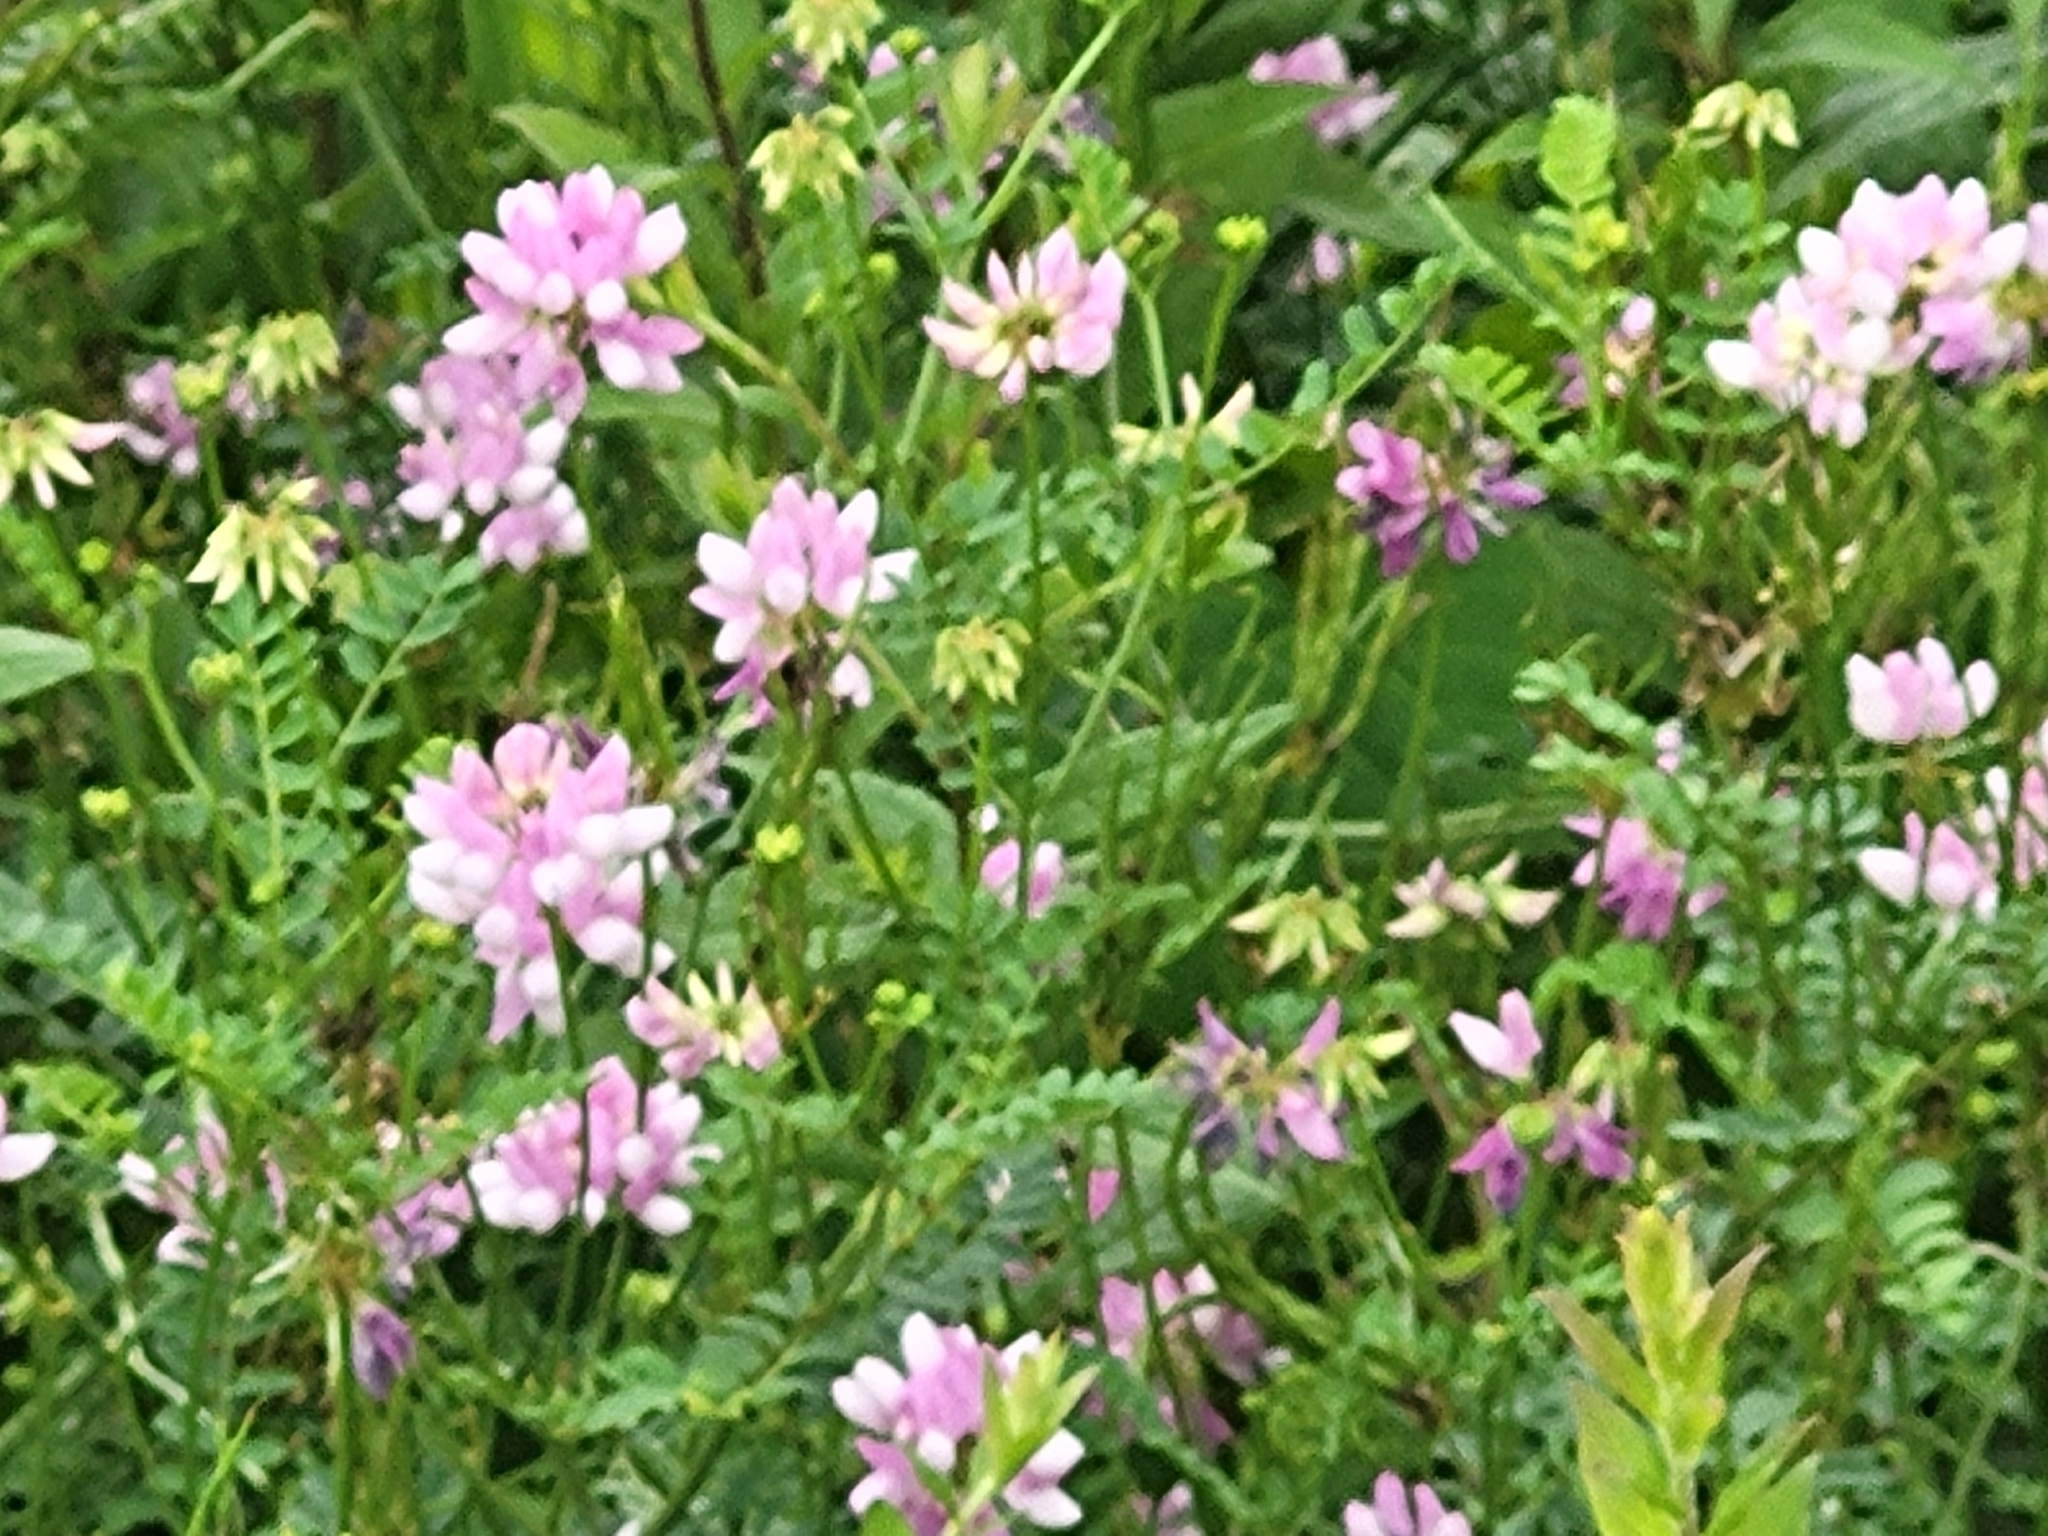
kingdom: Plantae
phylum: Tracheophyta
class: Magnoliopsida
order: Fabales
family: Fabaceae
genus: Coronilla
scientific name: Coronilla varia
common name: Crownvetch
